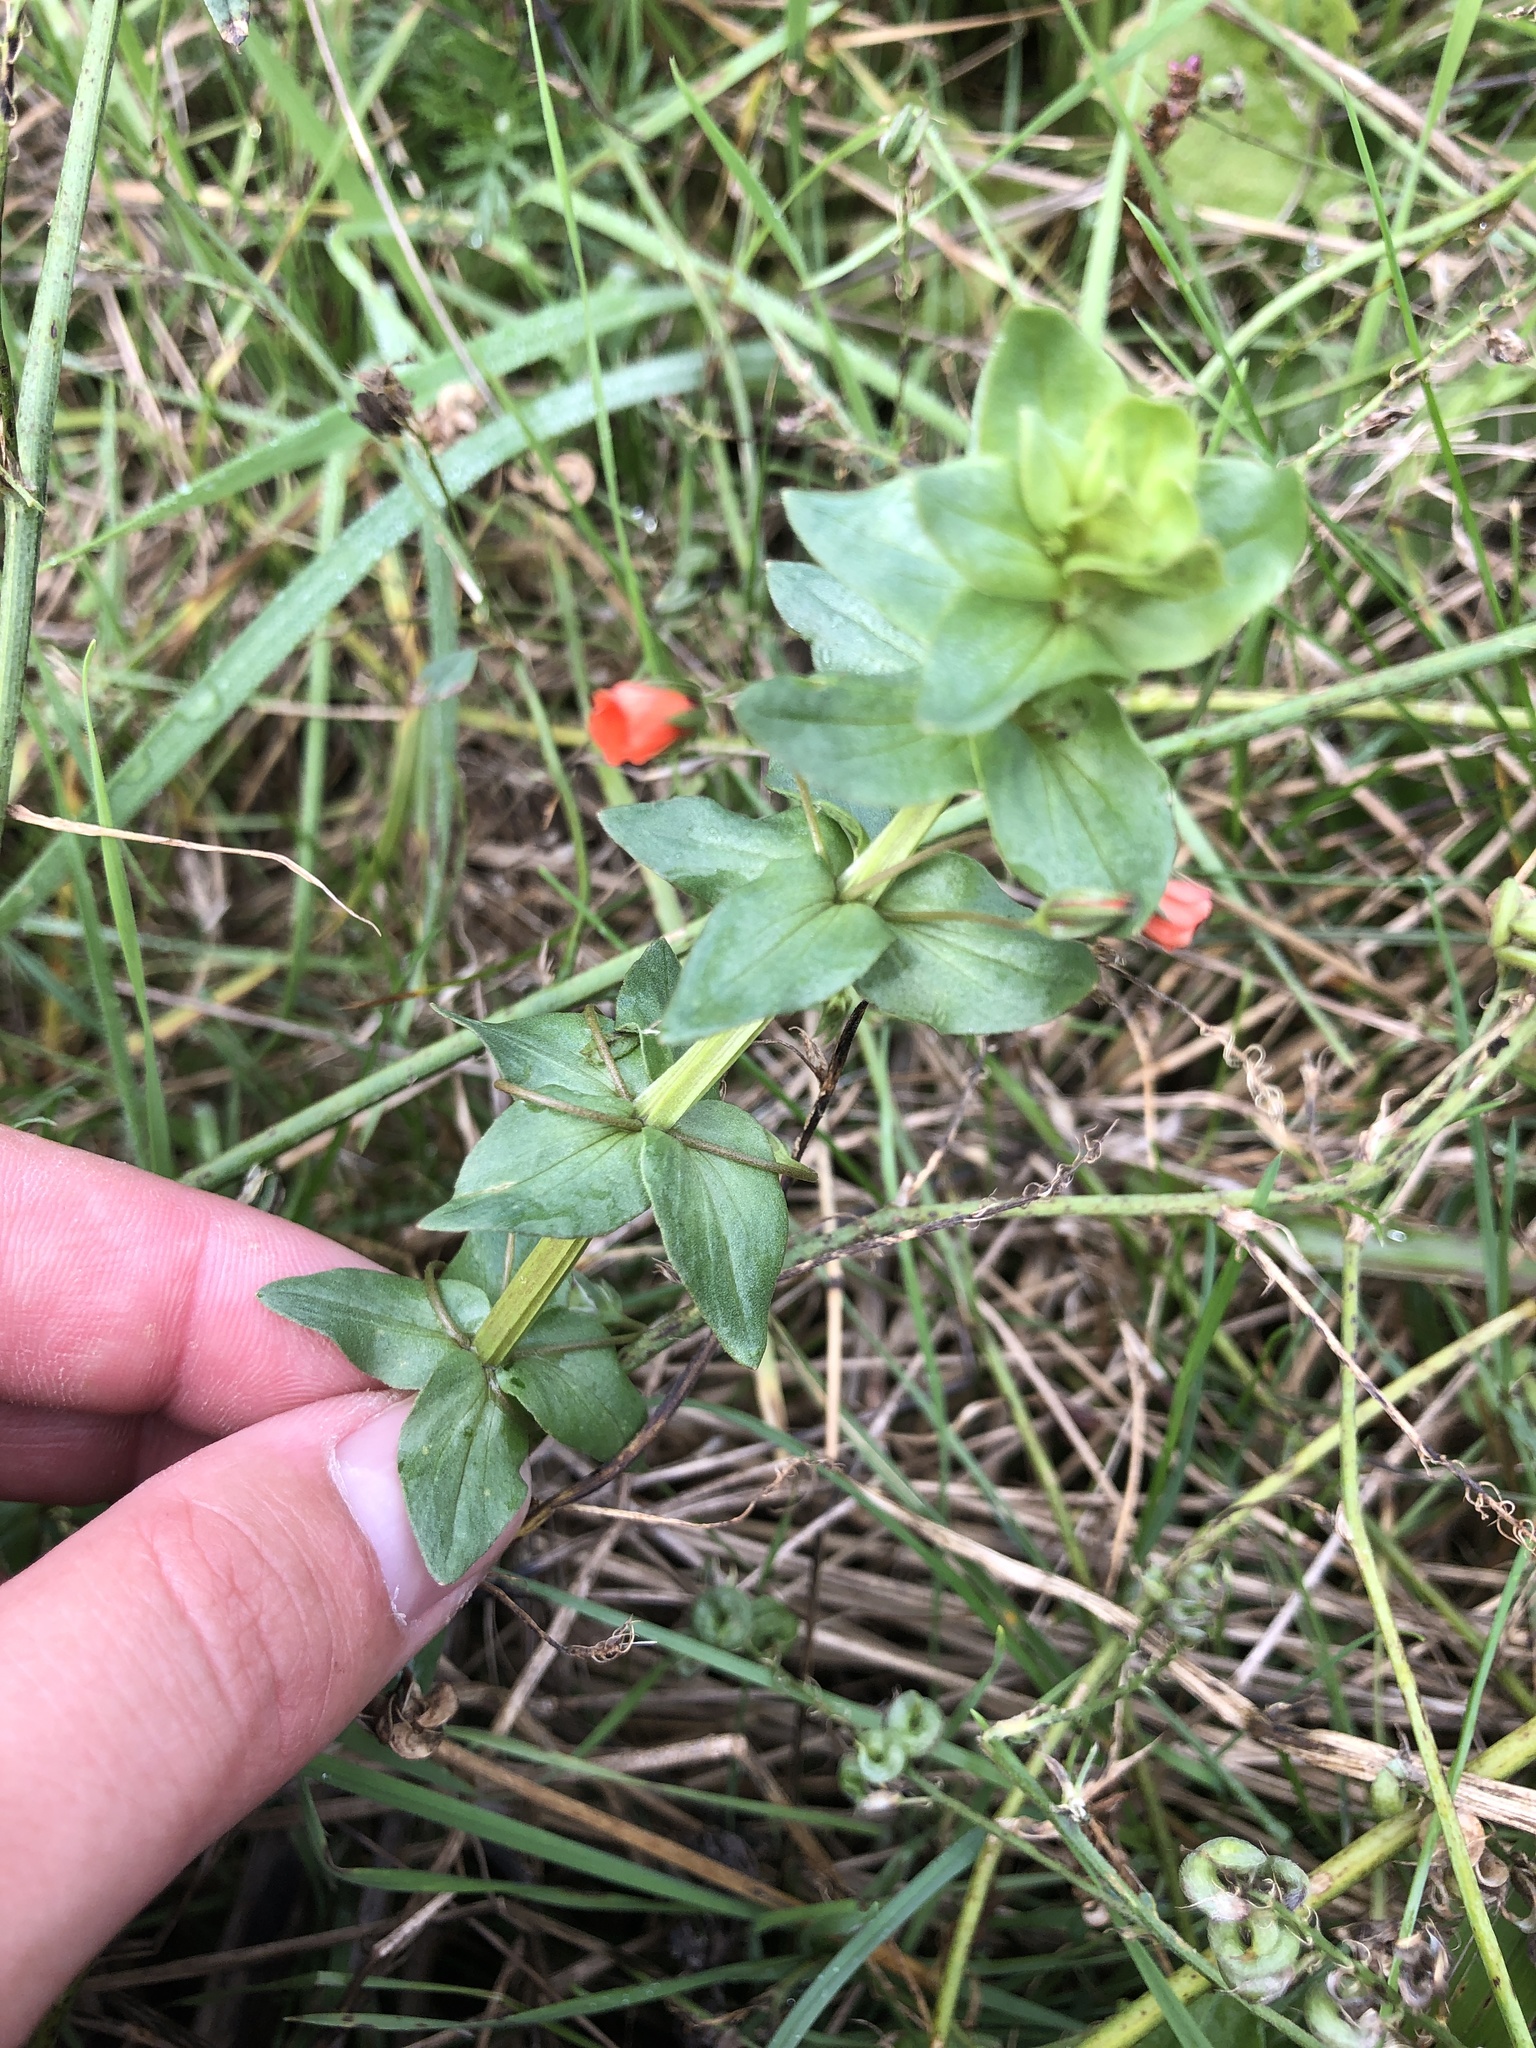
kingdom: Plantae
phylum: Tracheophyta
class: Magnoliopsida
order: Ericales
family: Primulaceae
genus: Lysimachia
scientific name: Lysimachia arvensis
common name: Scarlet pimpernel
